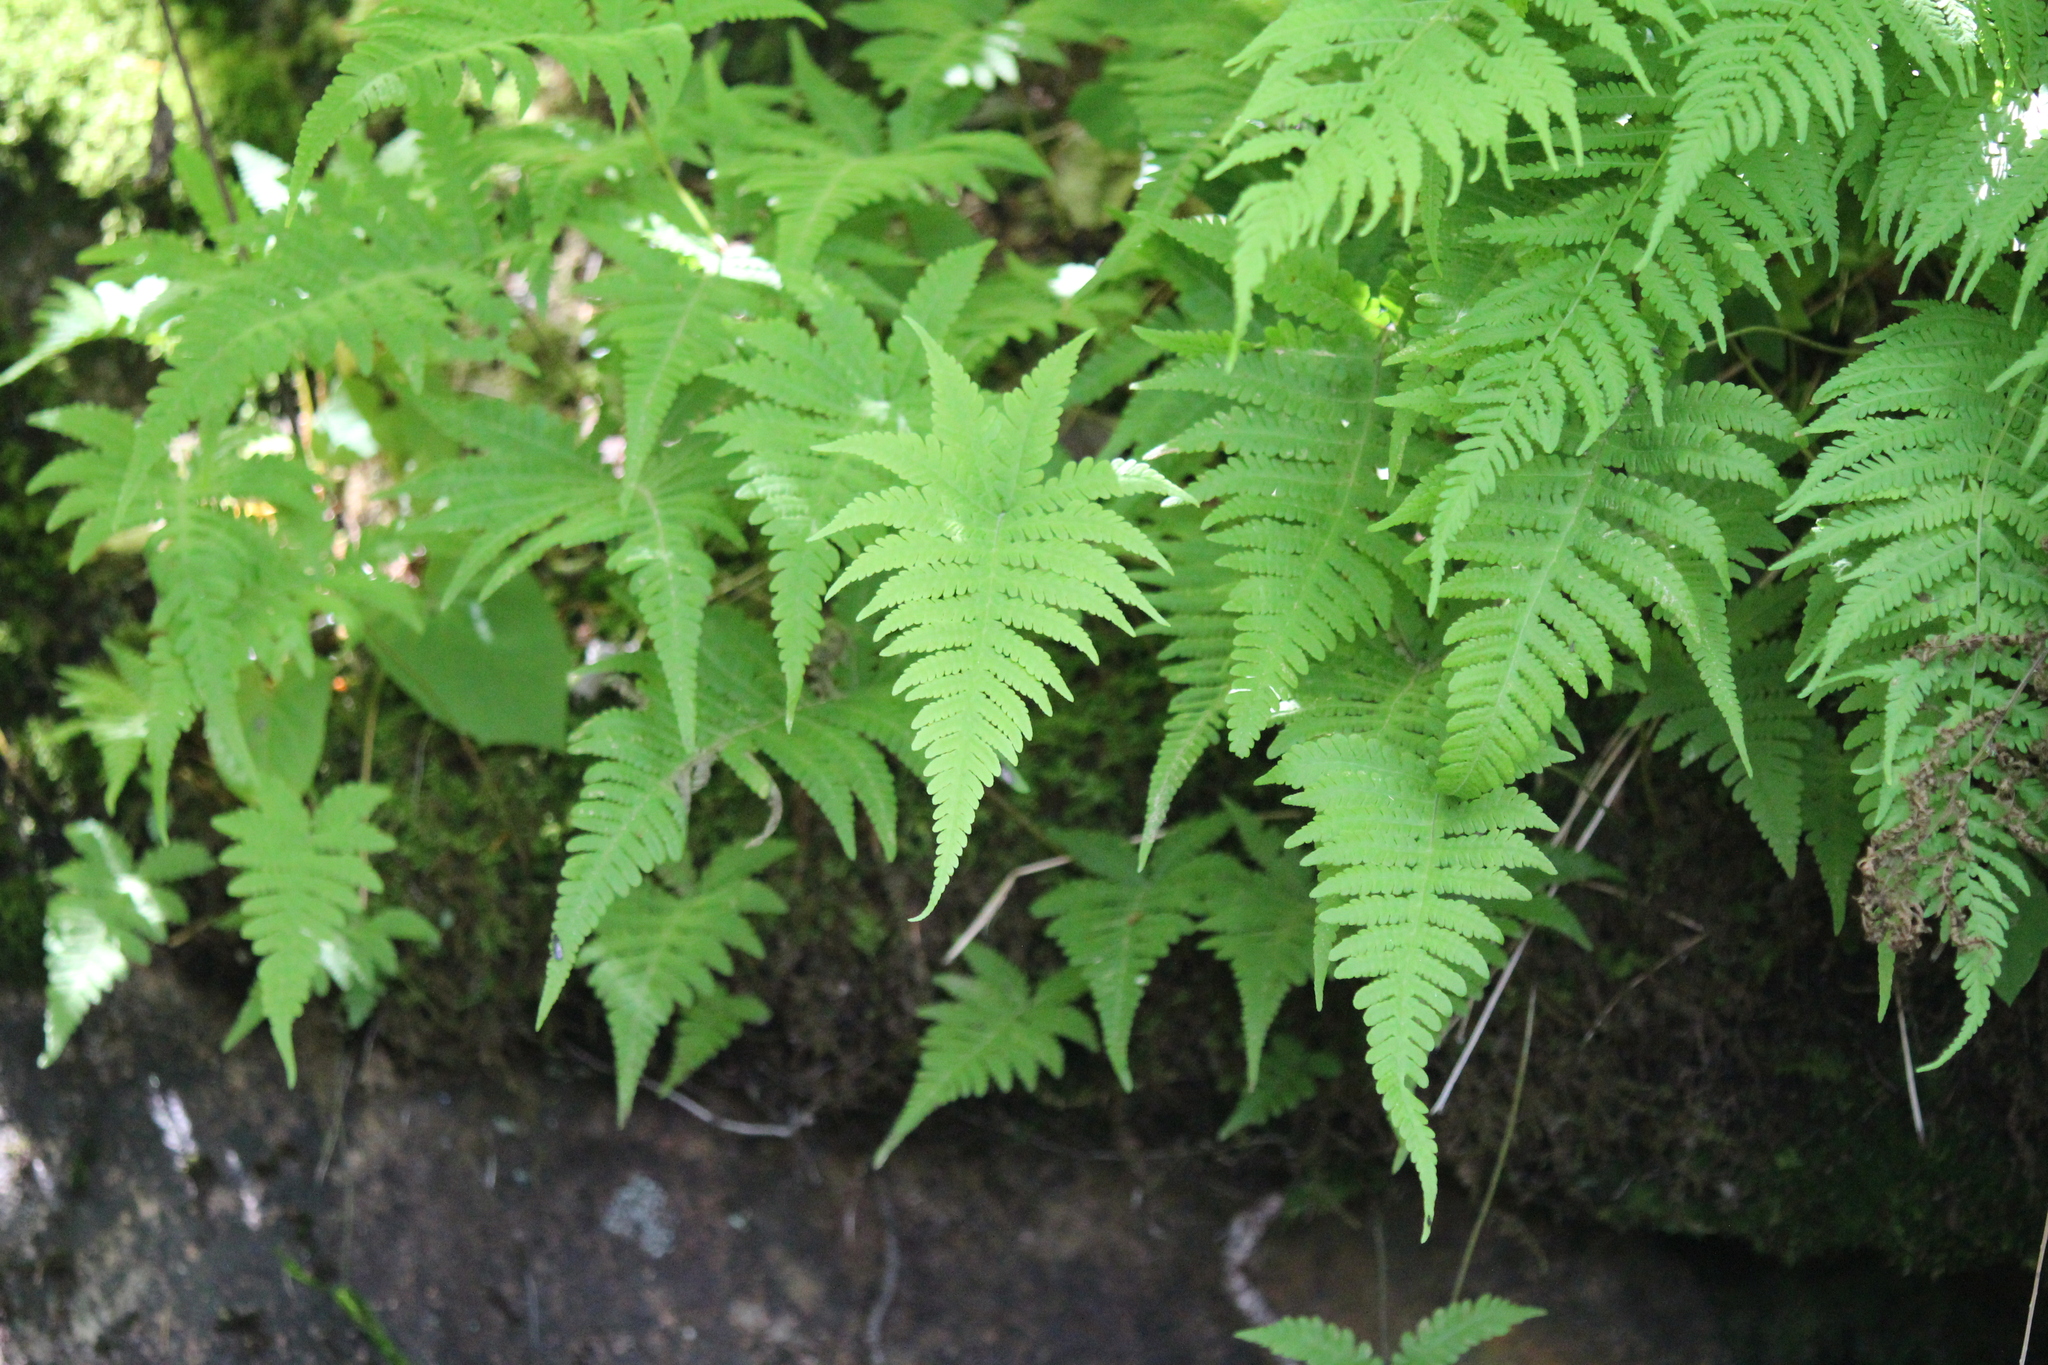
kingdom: Plantae
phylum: Tracheophyta
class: Polypodiopsida
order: Polypodiales
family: Thelypteridaceae
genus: Phegopteris
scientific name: Phegopteris connectilis
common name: Beech fern
